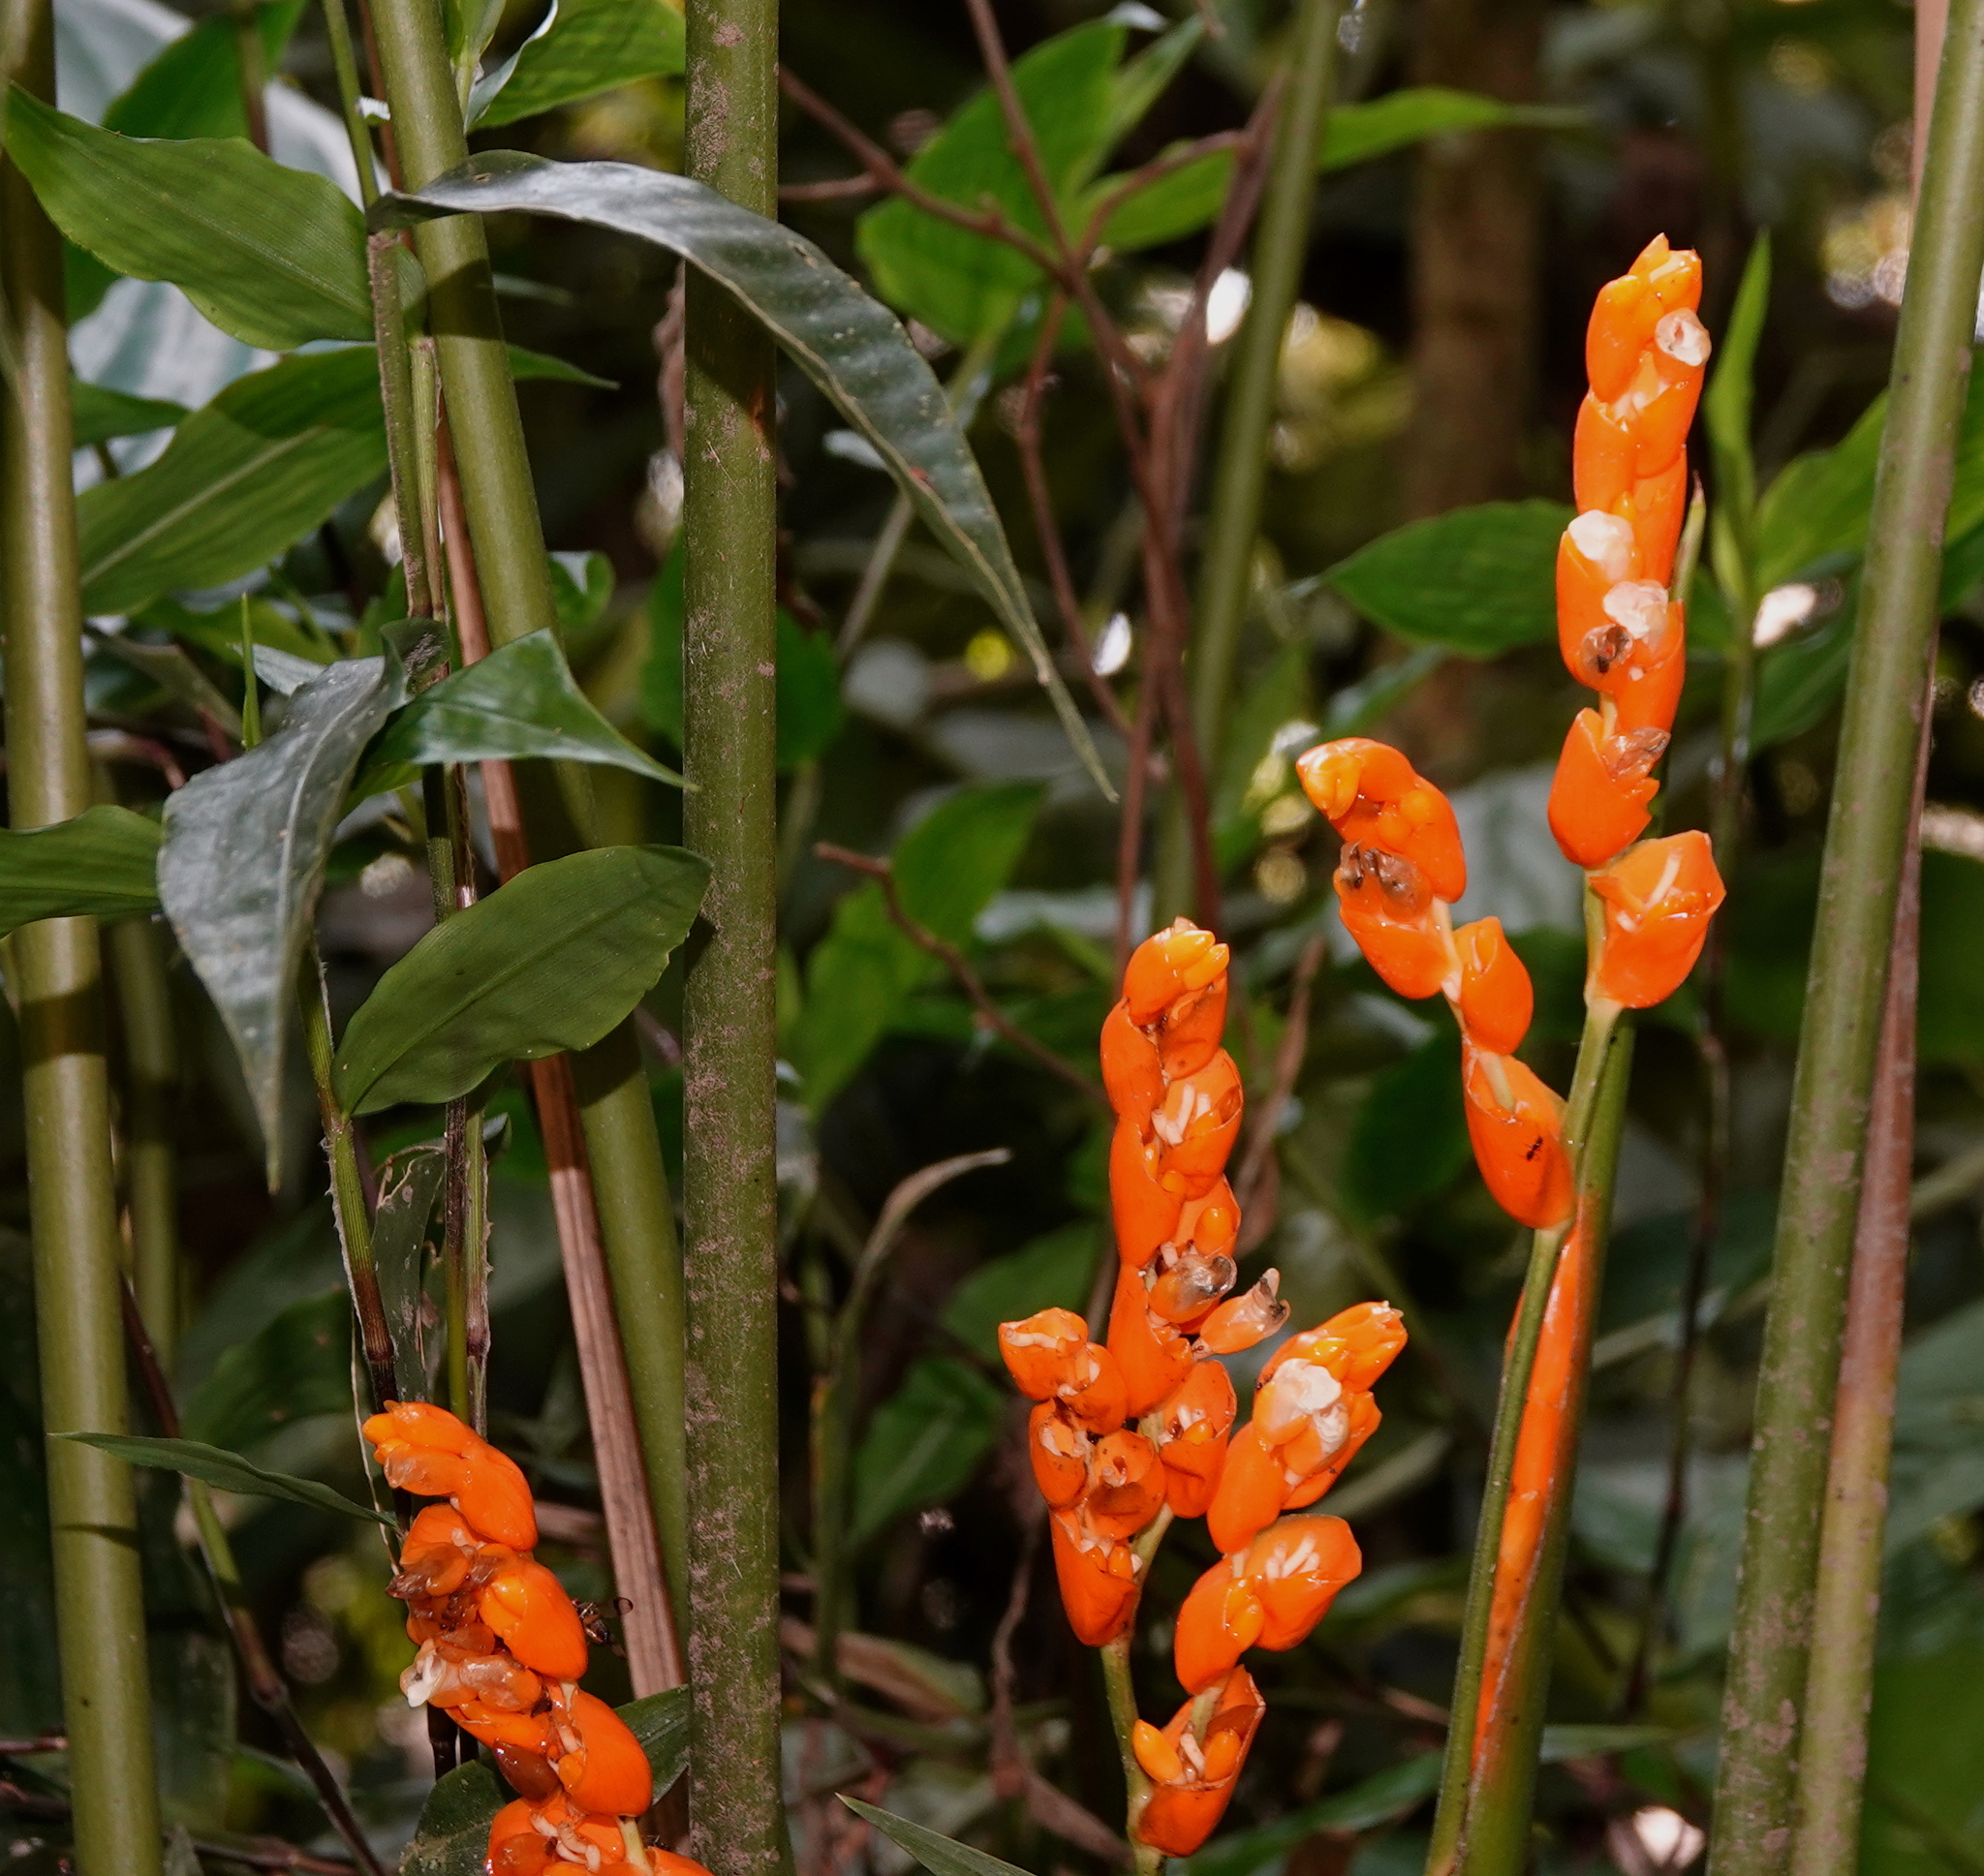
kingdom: Plantae
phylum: Tracheophyta
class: Liliopsida
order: Zingiberales
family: Marantaceae
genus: Stromanthe
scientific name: Stromanthe stromanthoides
